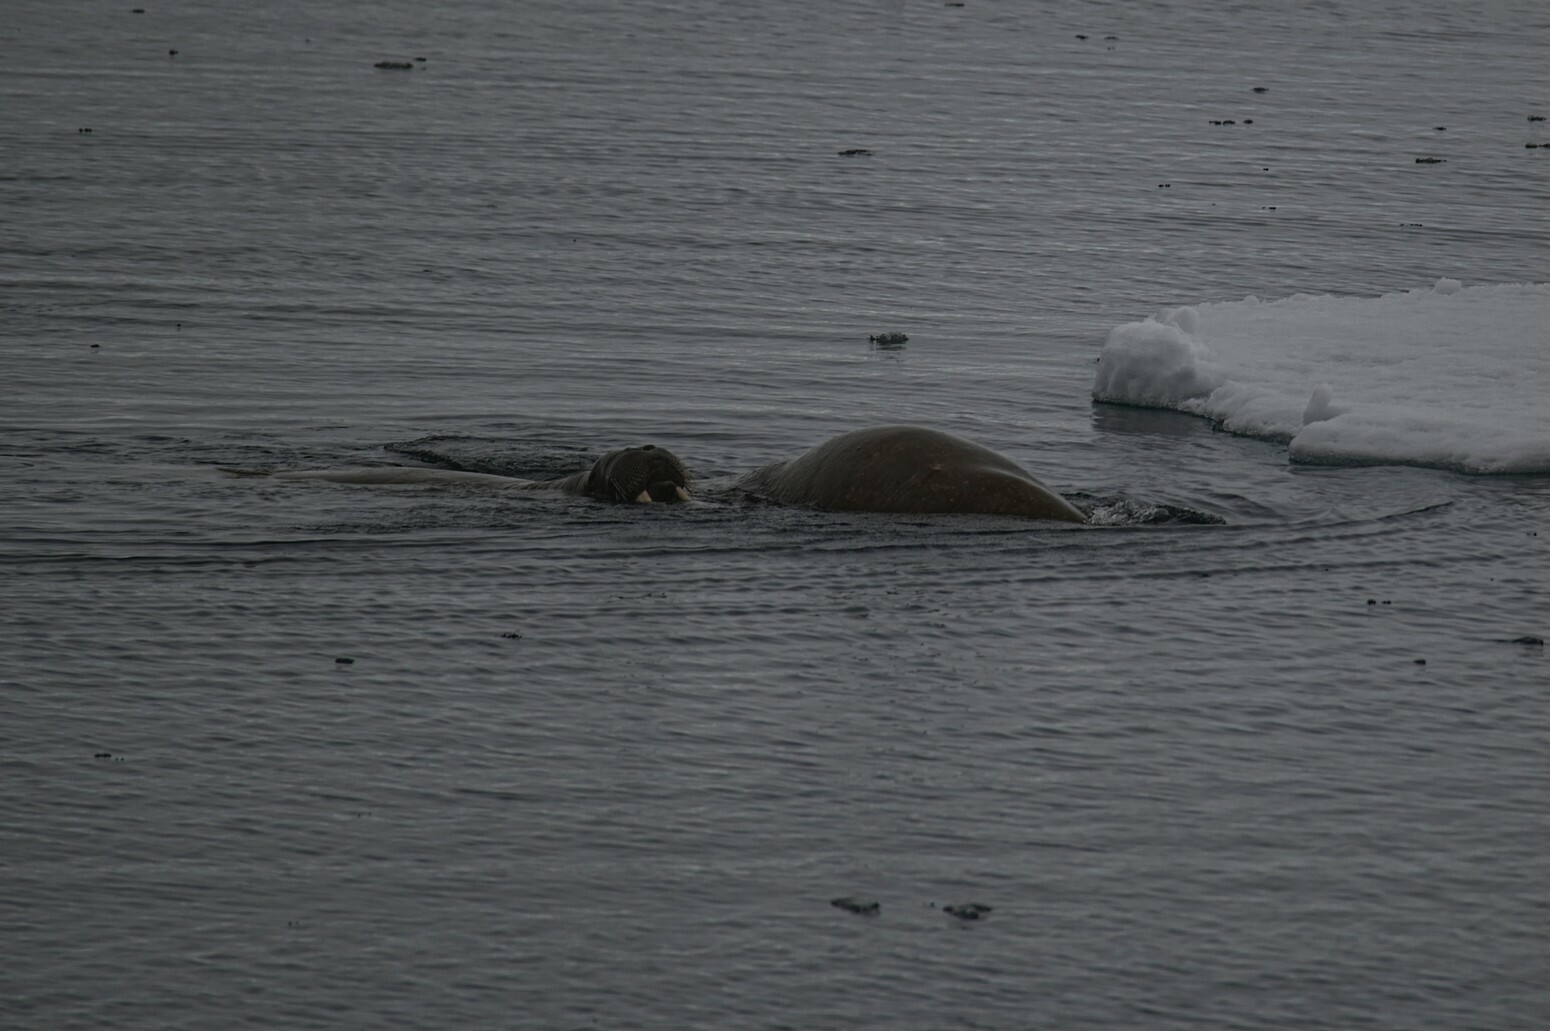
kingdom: Animalia
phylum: Chordata
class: Mammalia
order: Carnivora
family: Odobenidae
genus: Odobenus
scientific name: Odobenus rosmarus
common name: Walrus
